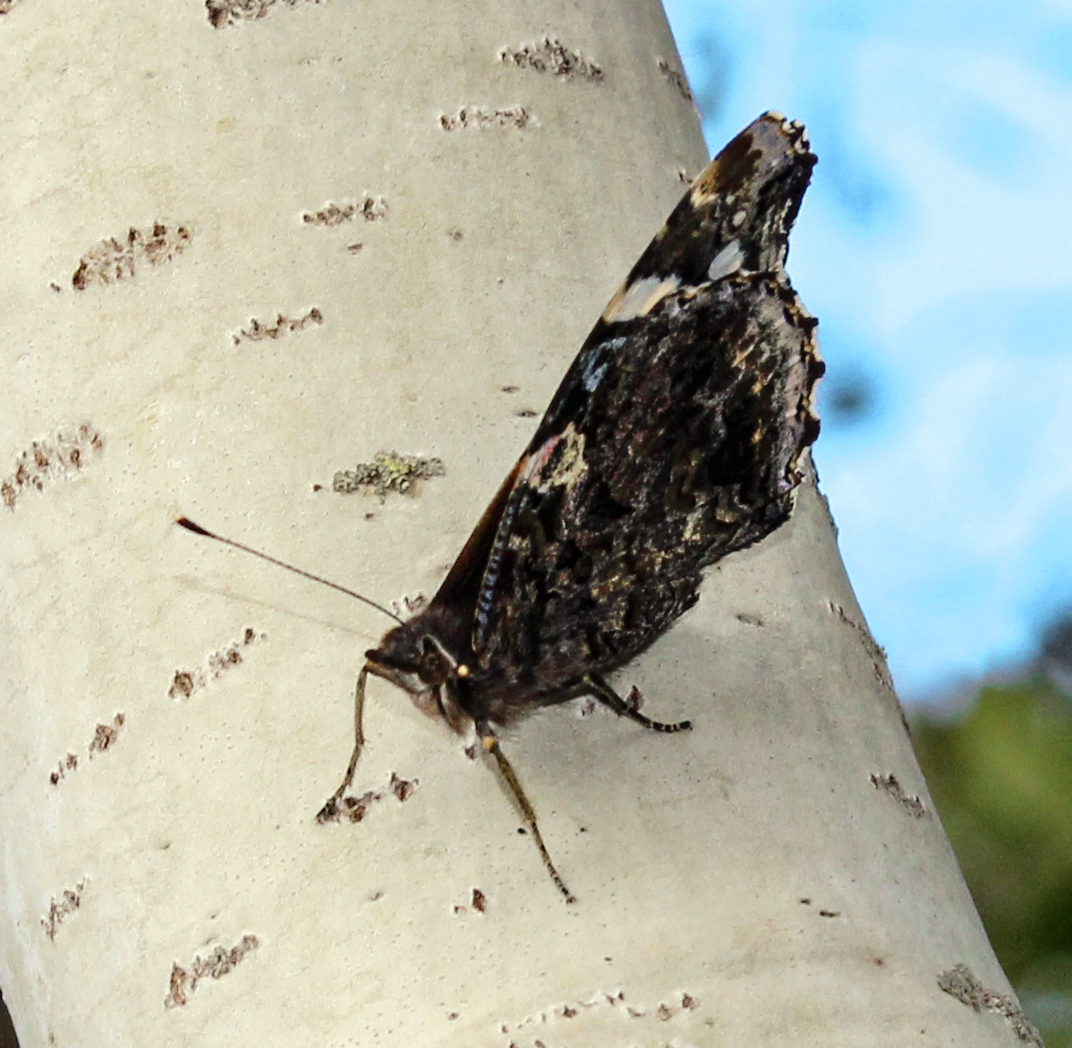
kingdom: Animalia
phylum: Arthropoda
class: Insecta
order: Lepidoptera
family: Nymphalidae
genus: Vanessa
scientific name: Vanessa atalanta
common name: Red admiral
